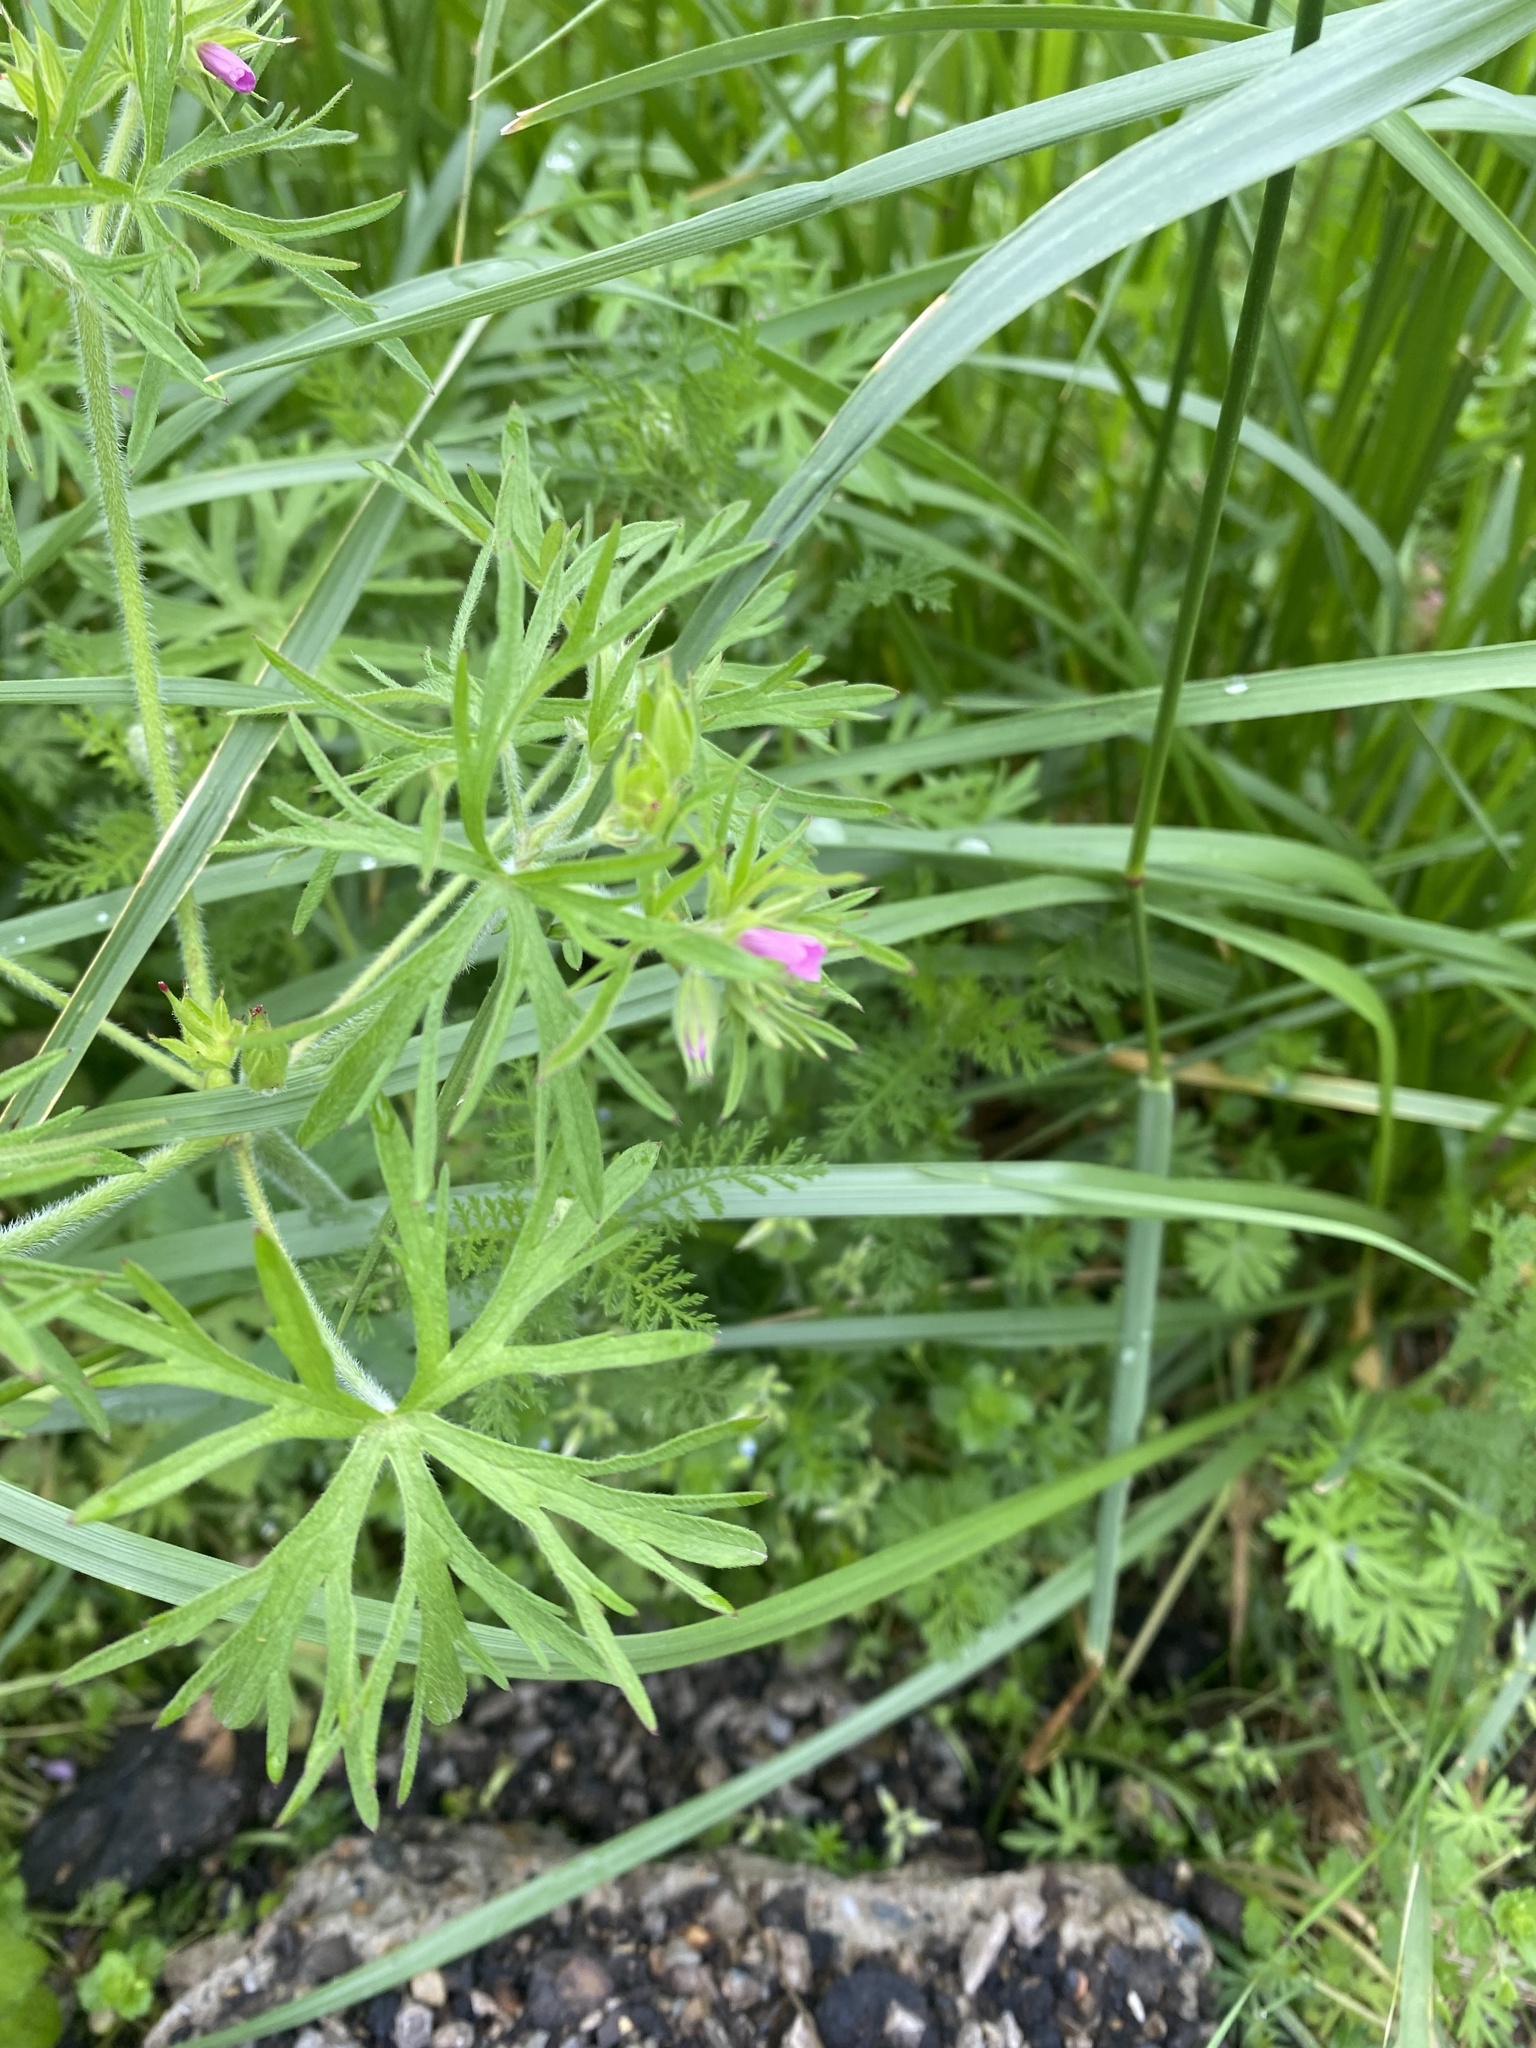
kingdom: Plantae
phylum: Tracheophyta
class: Magnoliopsida
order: Geraniales
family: Geraniaceae
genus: Geranium
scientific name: Geranium dissectum
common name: Cut-leaved crane's-bill
